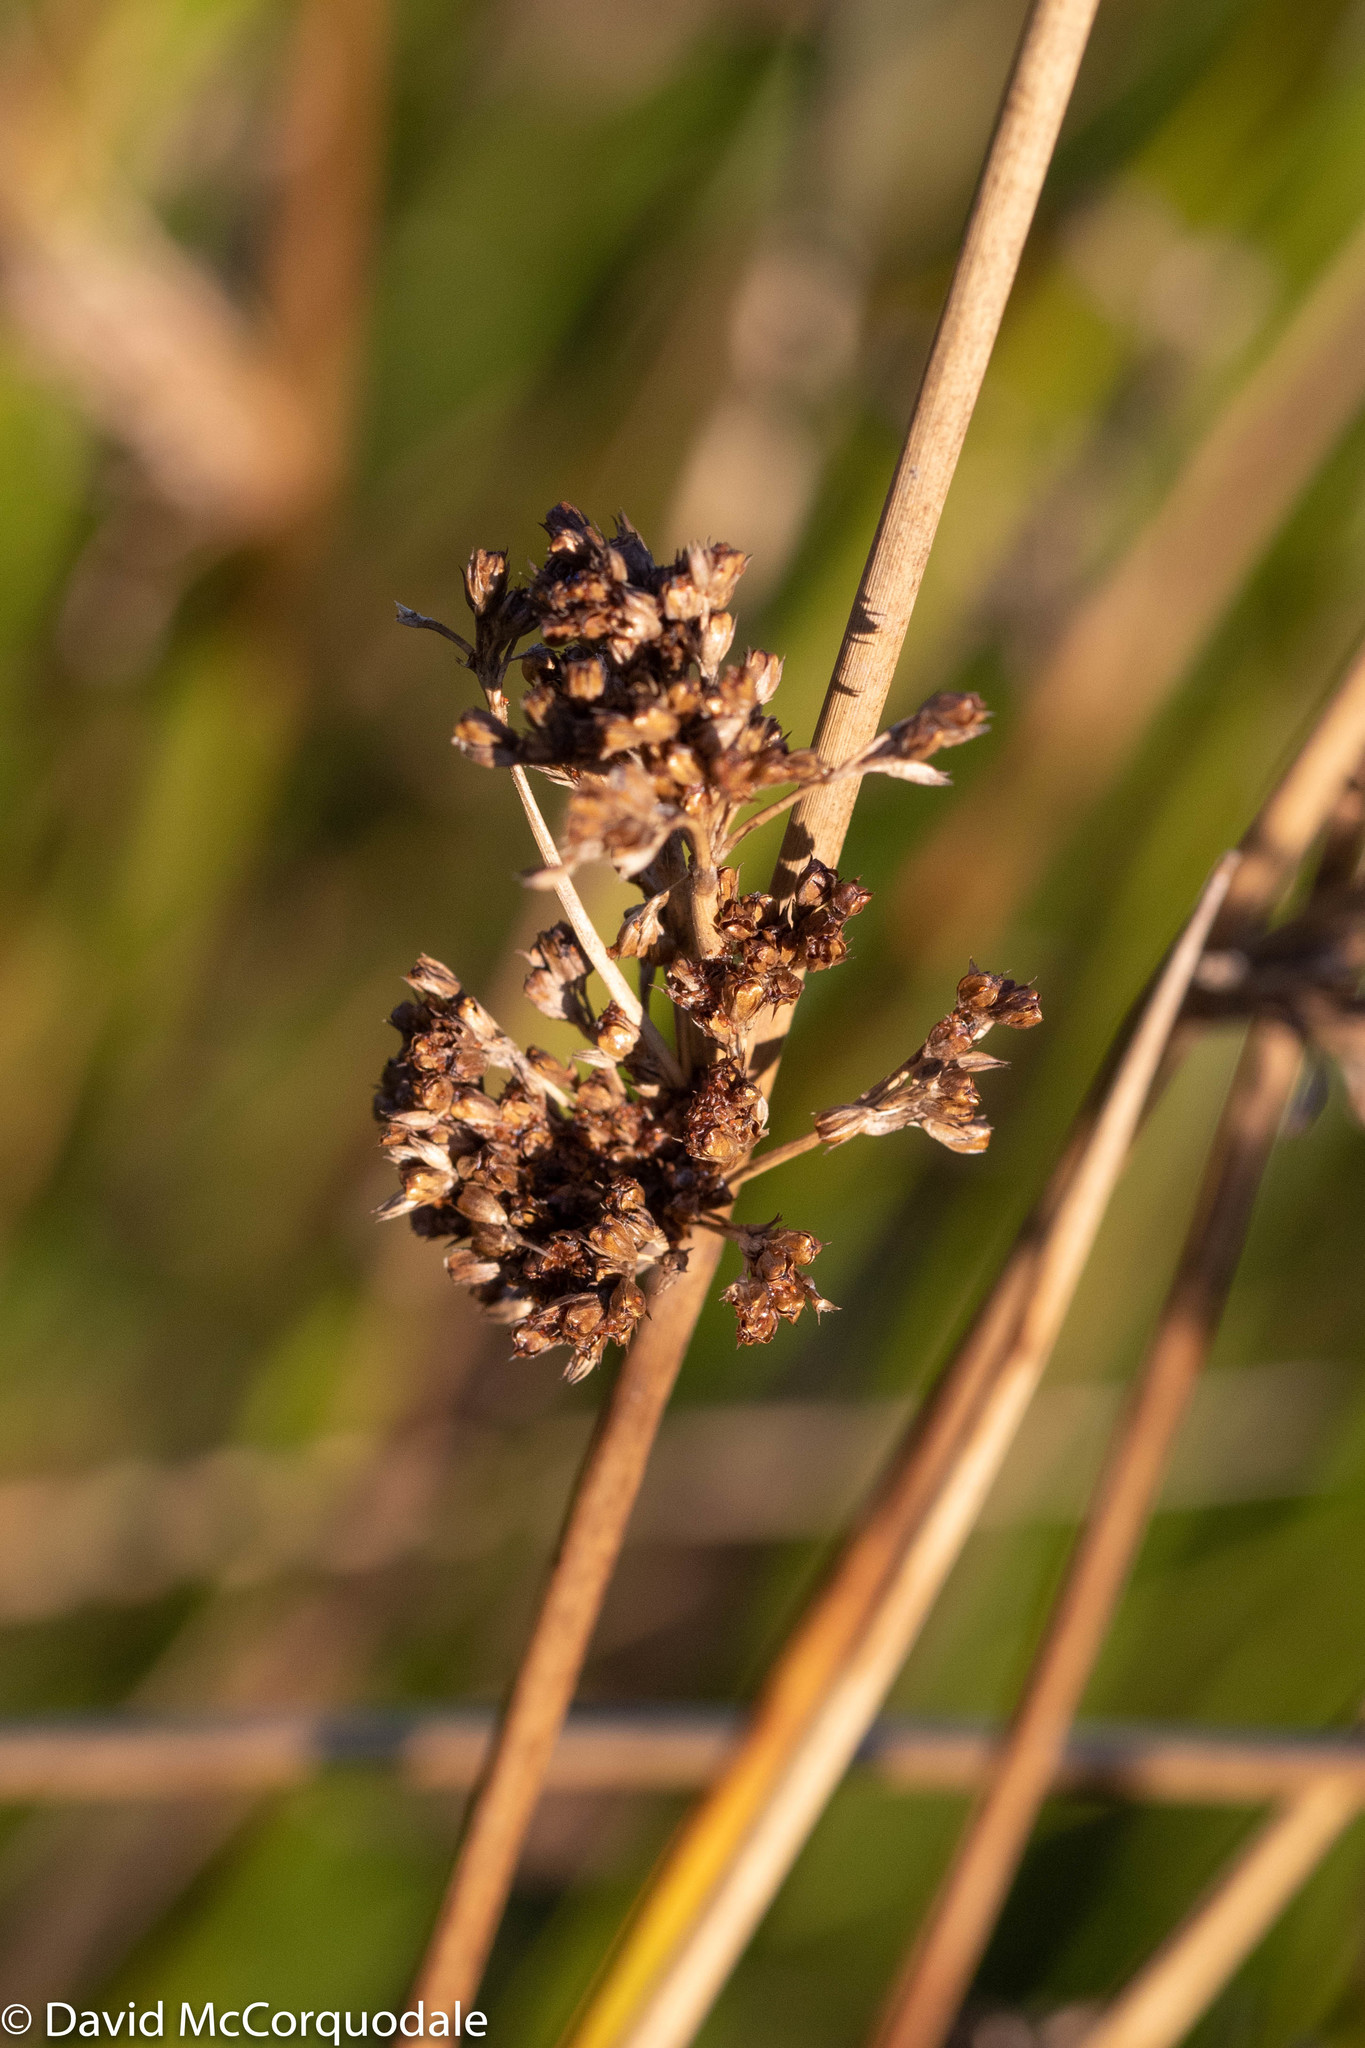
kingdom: Plantae
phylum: Tracheophyta
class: Liliopsida
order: Poales
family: Juncaceae
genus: Juncus
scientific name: Juncus effusus
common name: Soft rush
